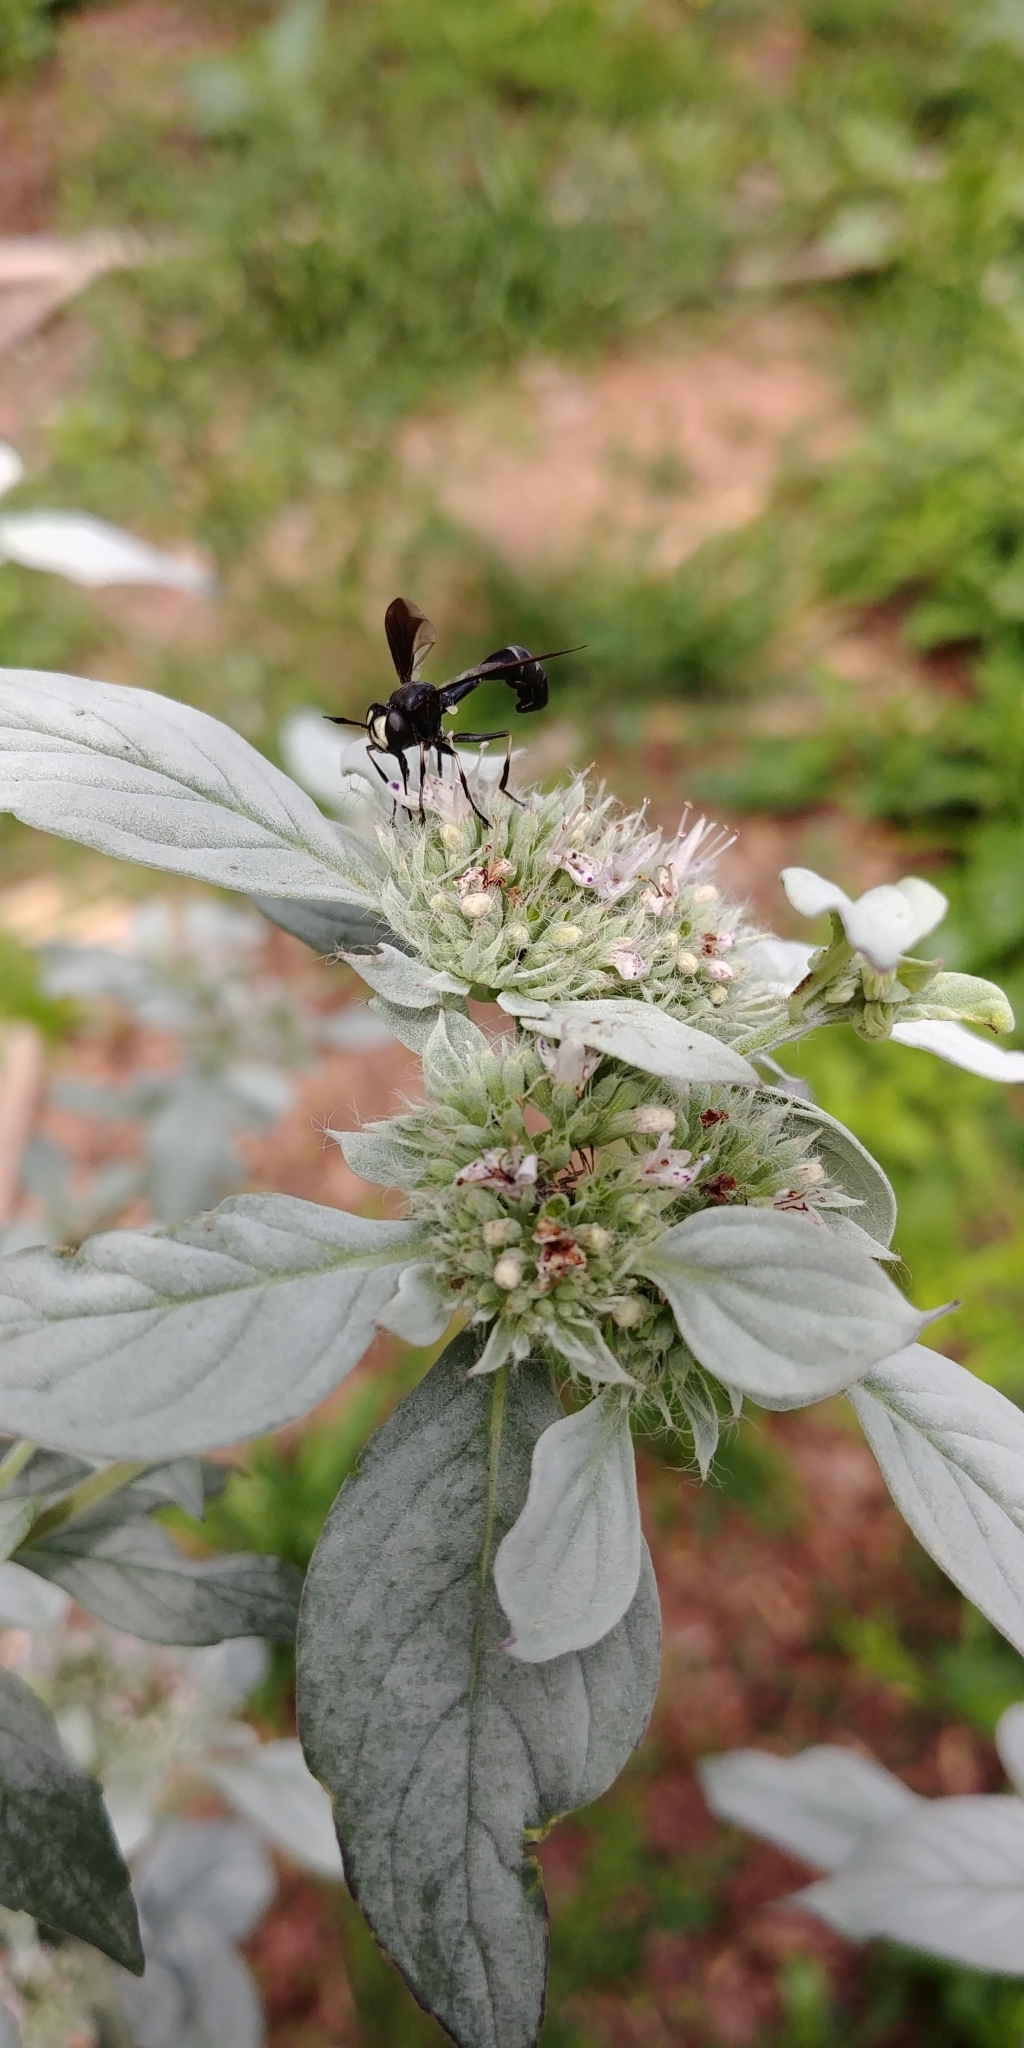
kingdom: Animalia
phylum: Arthropoda
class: Insecta
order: Diptera
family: Conopidae
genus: Physocephala
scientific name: Physocephala tibialis
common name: Common eastern physocephala
